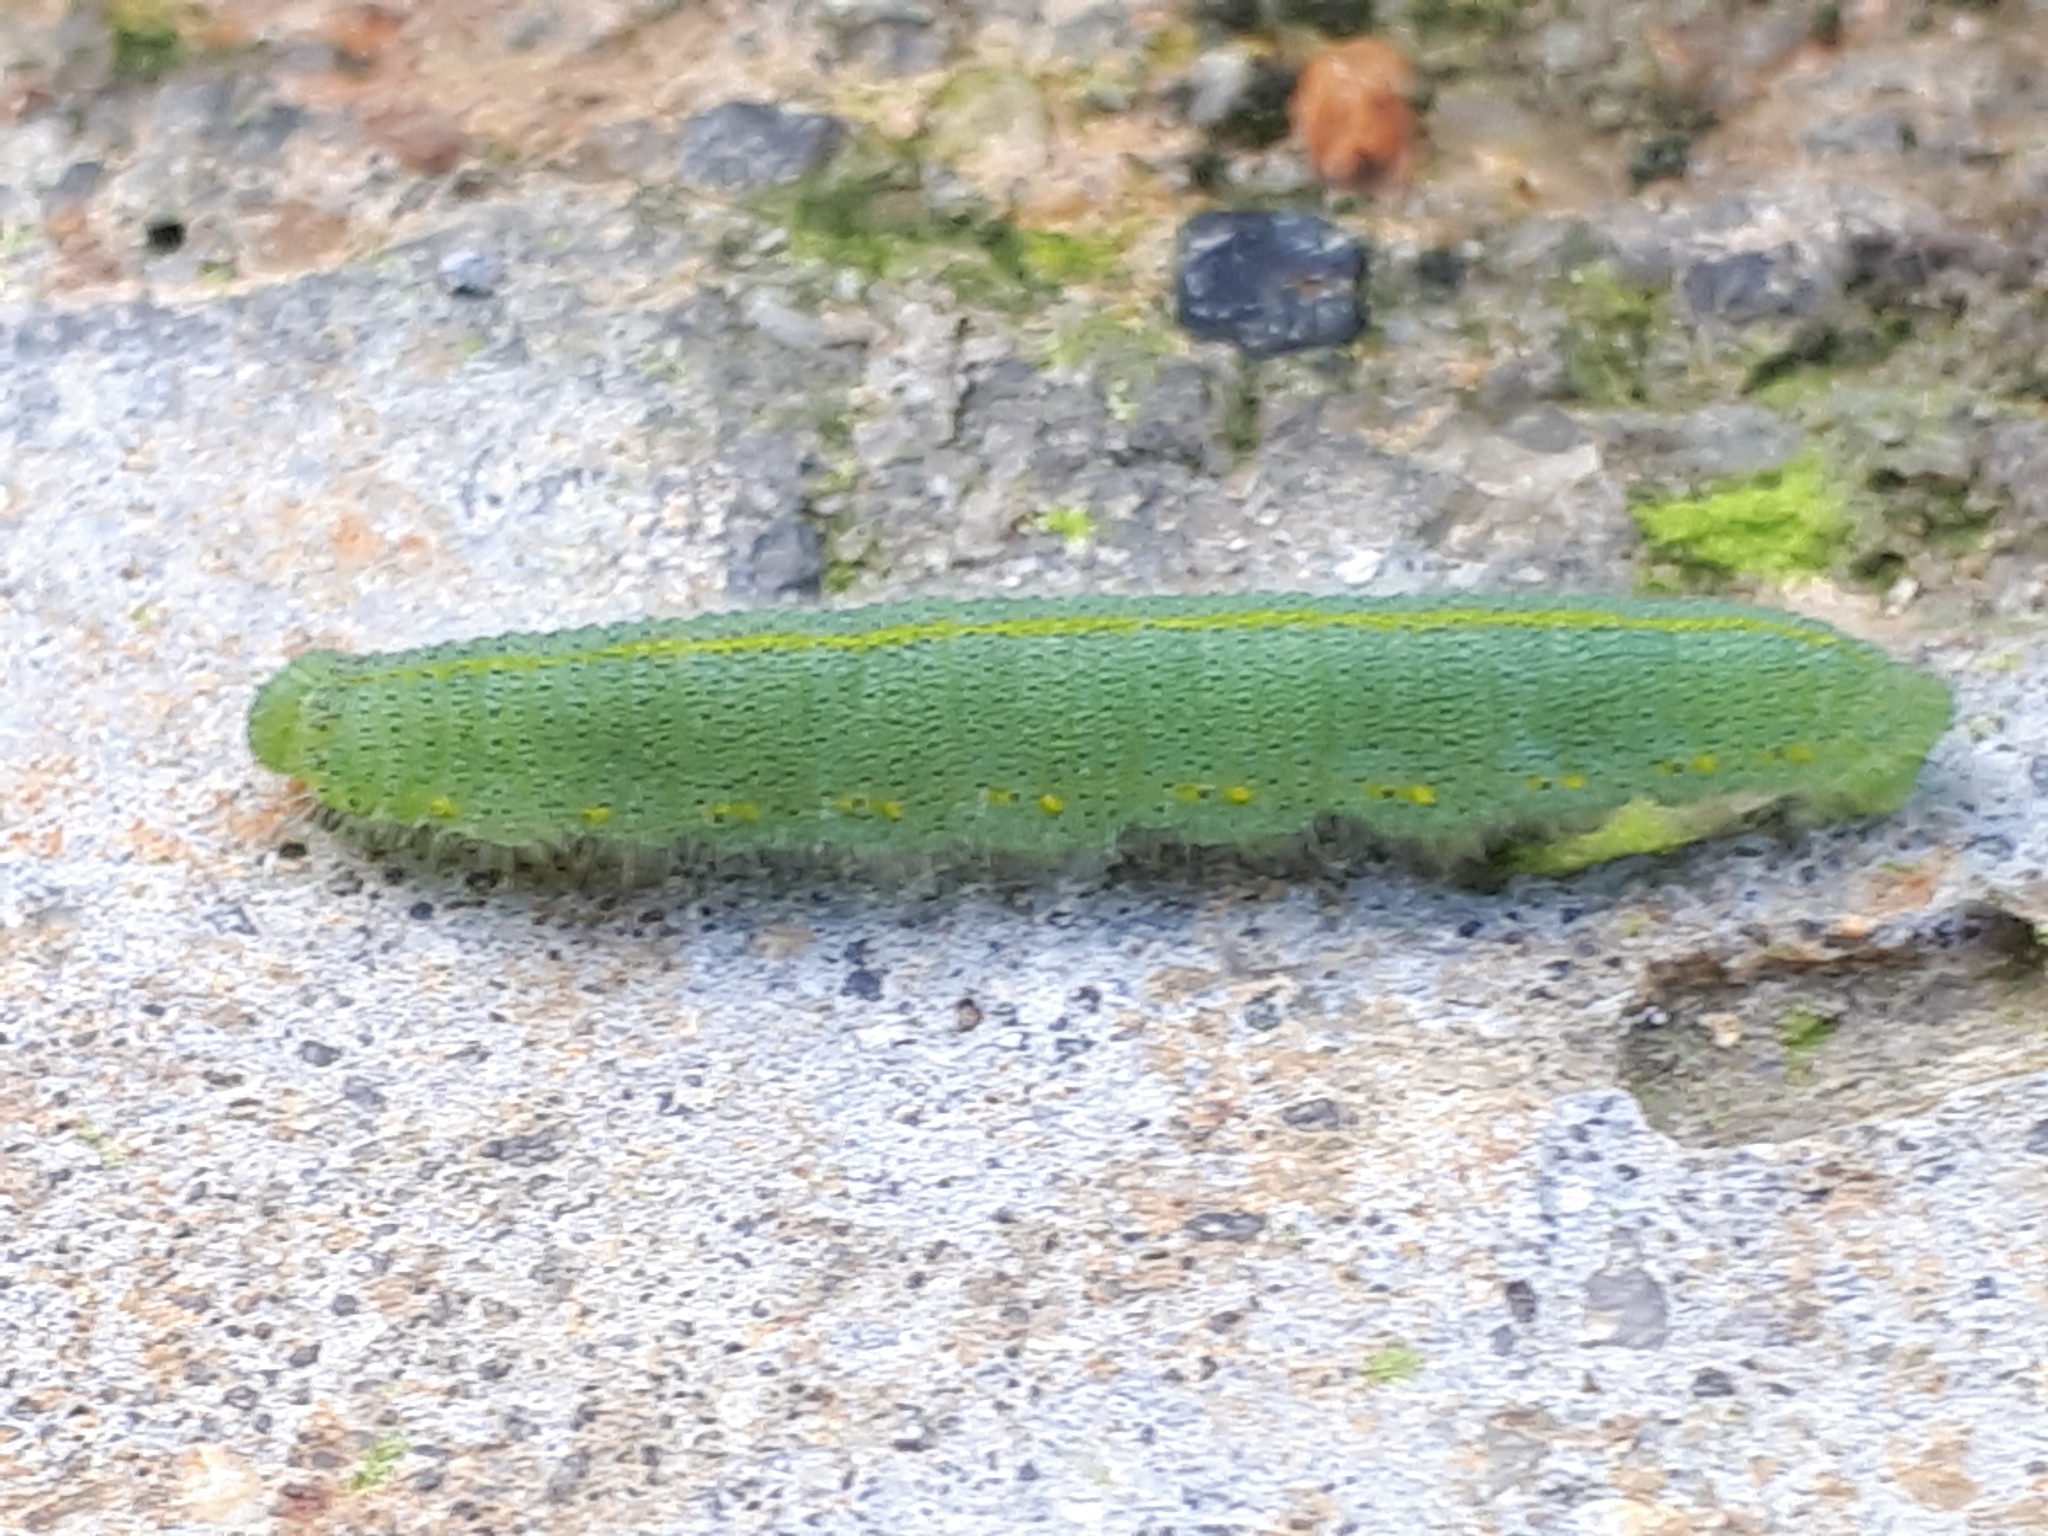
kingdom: Animalia
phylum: Arthropoda
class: Insecta
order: Lepidoptera
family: Pieridae
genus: Pieris
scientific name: Pieris rapae
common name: Small white
